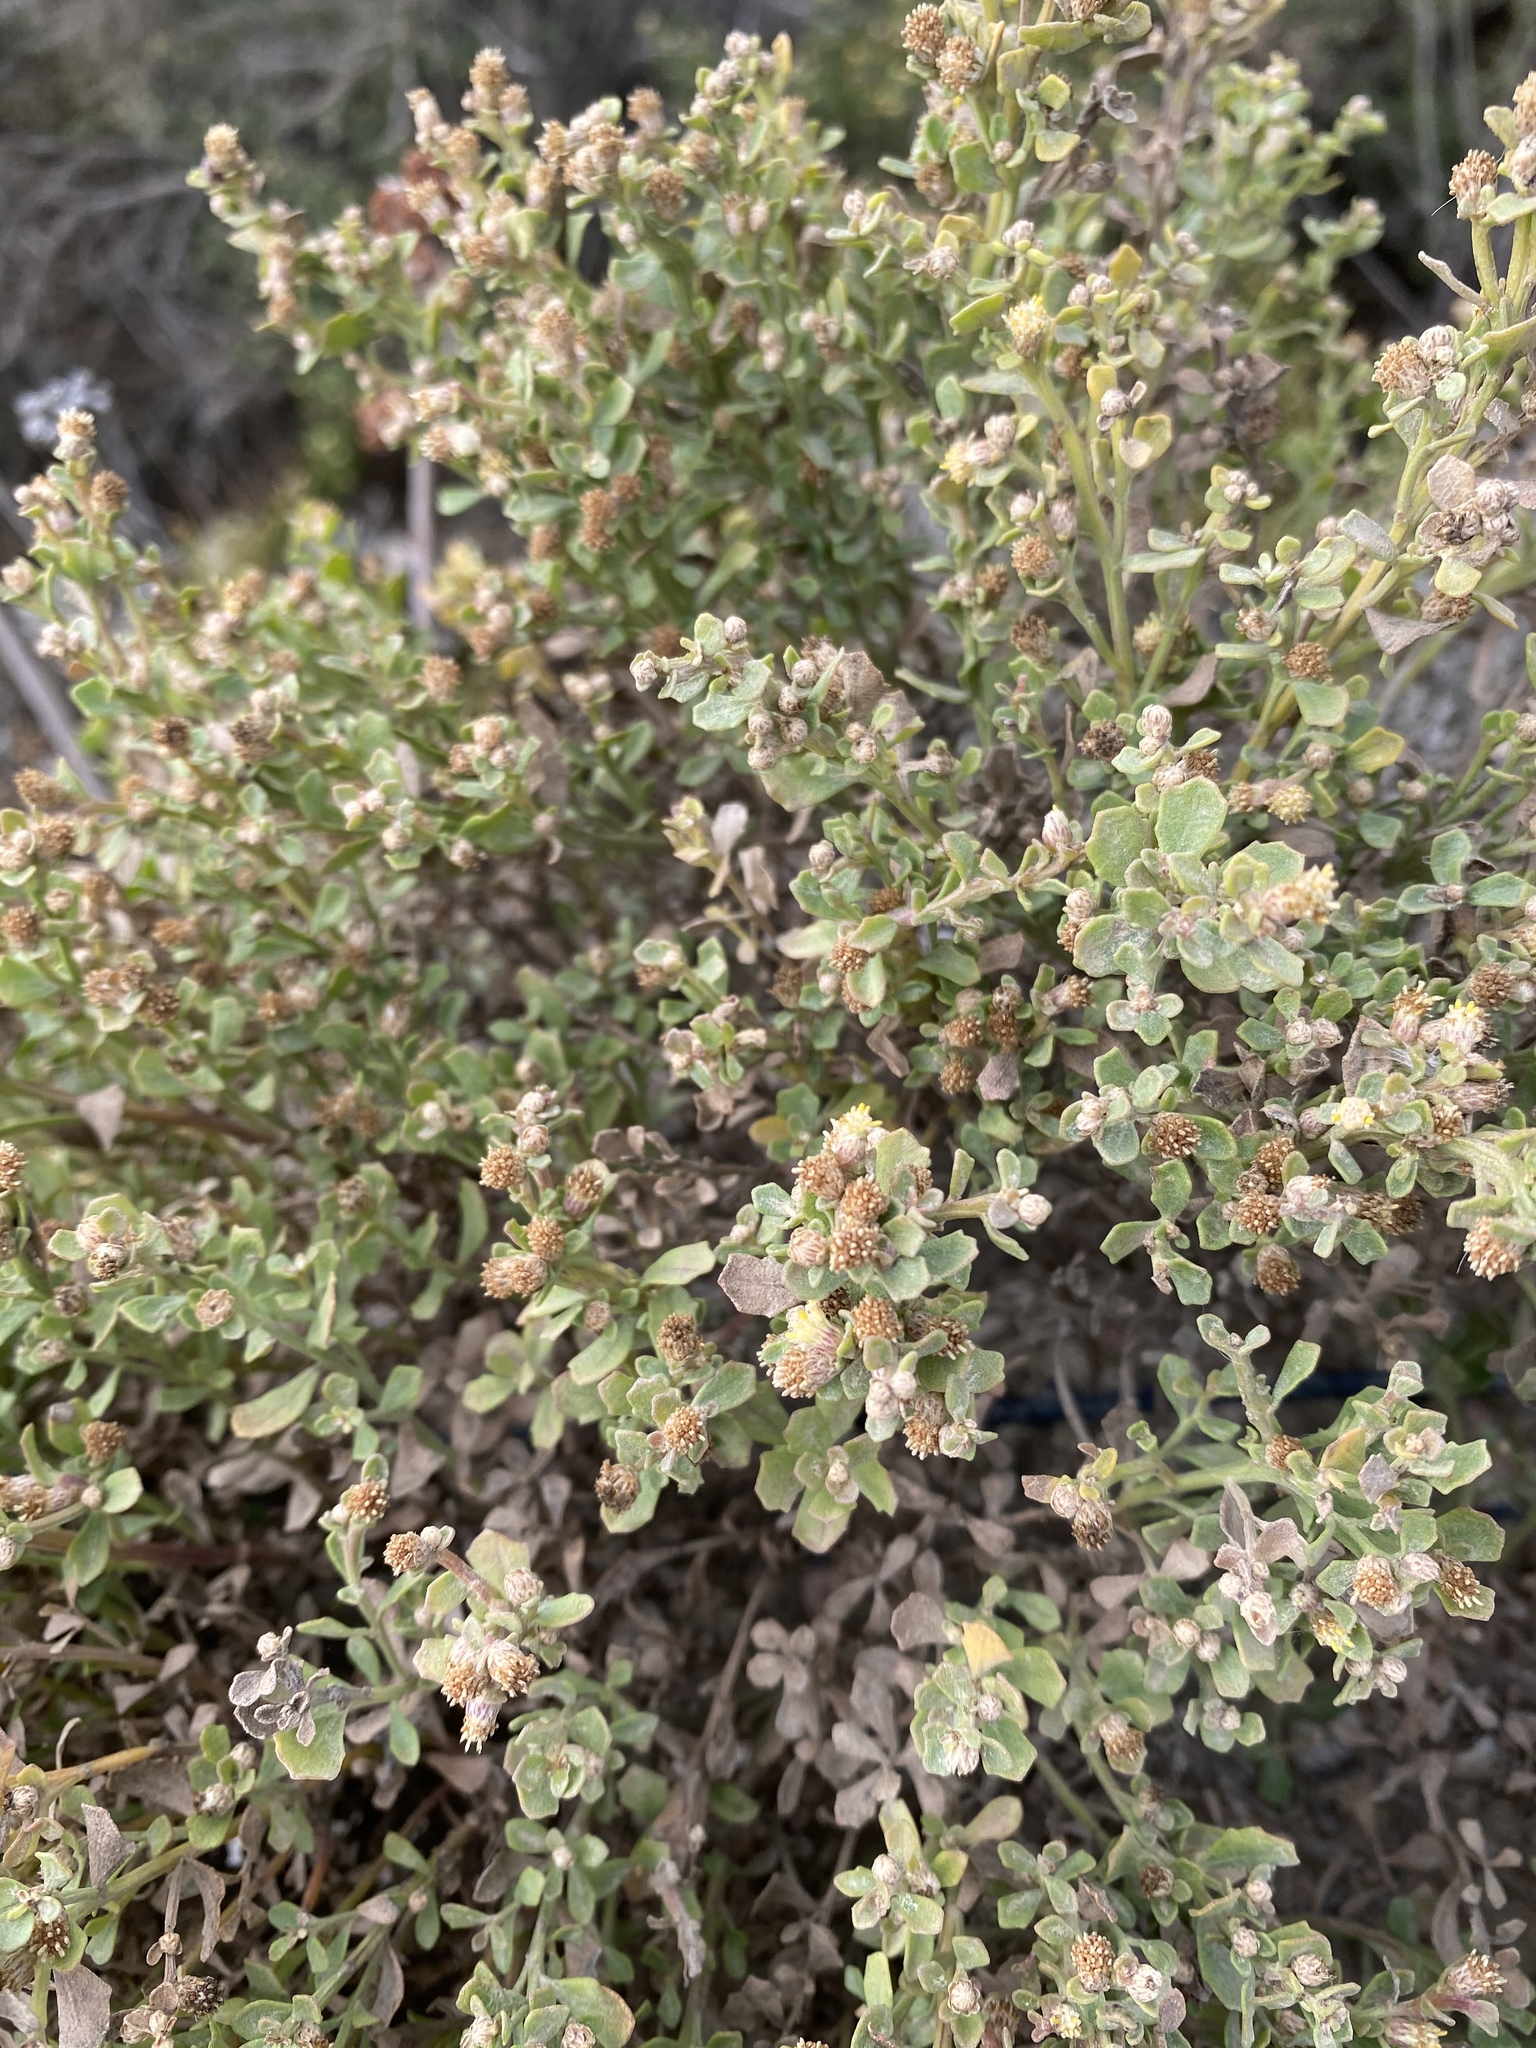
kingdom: Plantae
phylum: Tracheophyta
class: Magnoliopsida
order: Asterales
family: Asteraceae
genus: Baccharis
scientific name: Baccharis pilularis
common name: Coyotebrush
